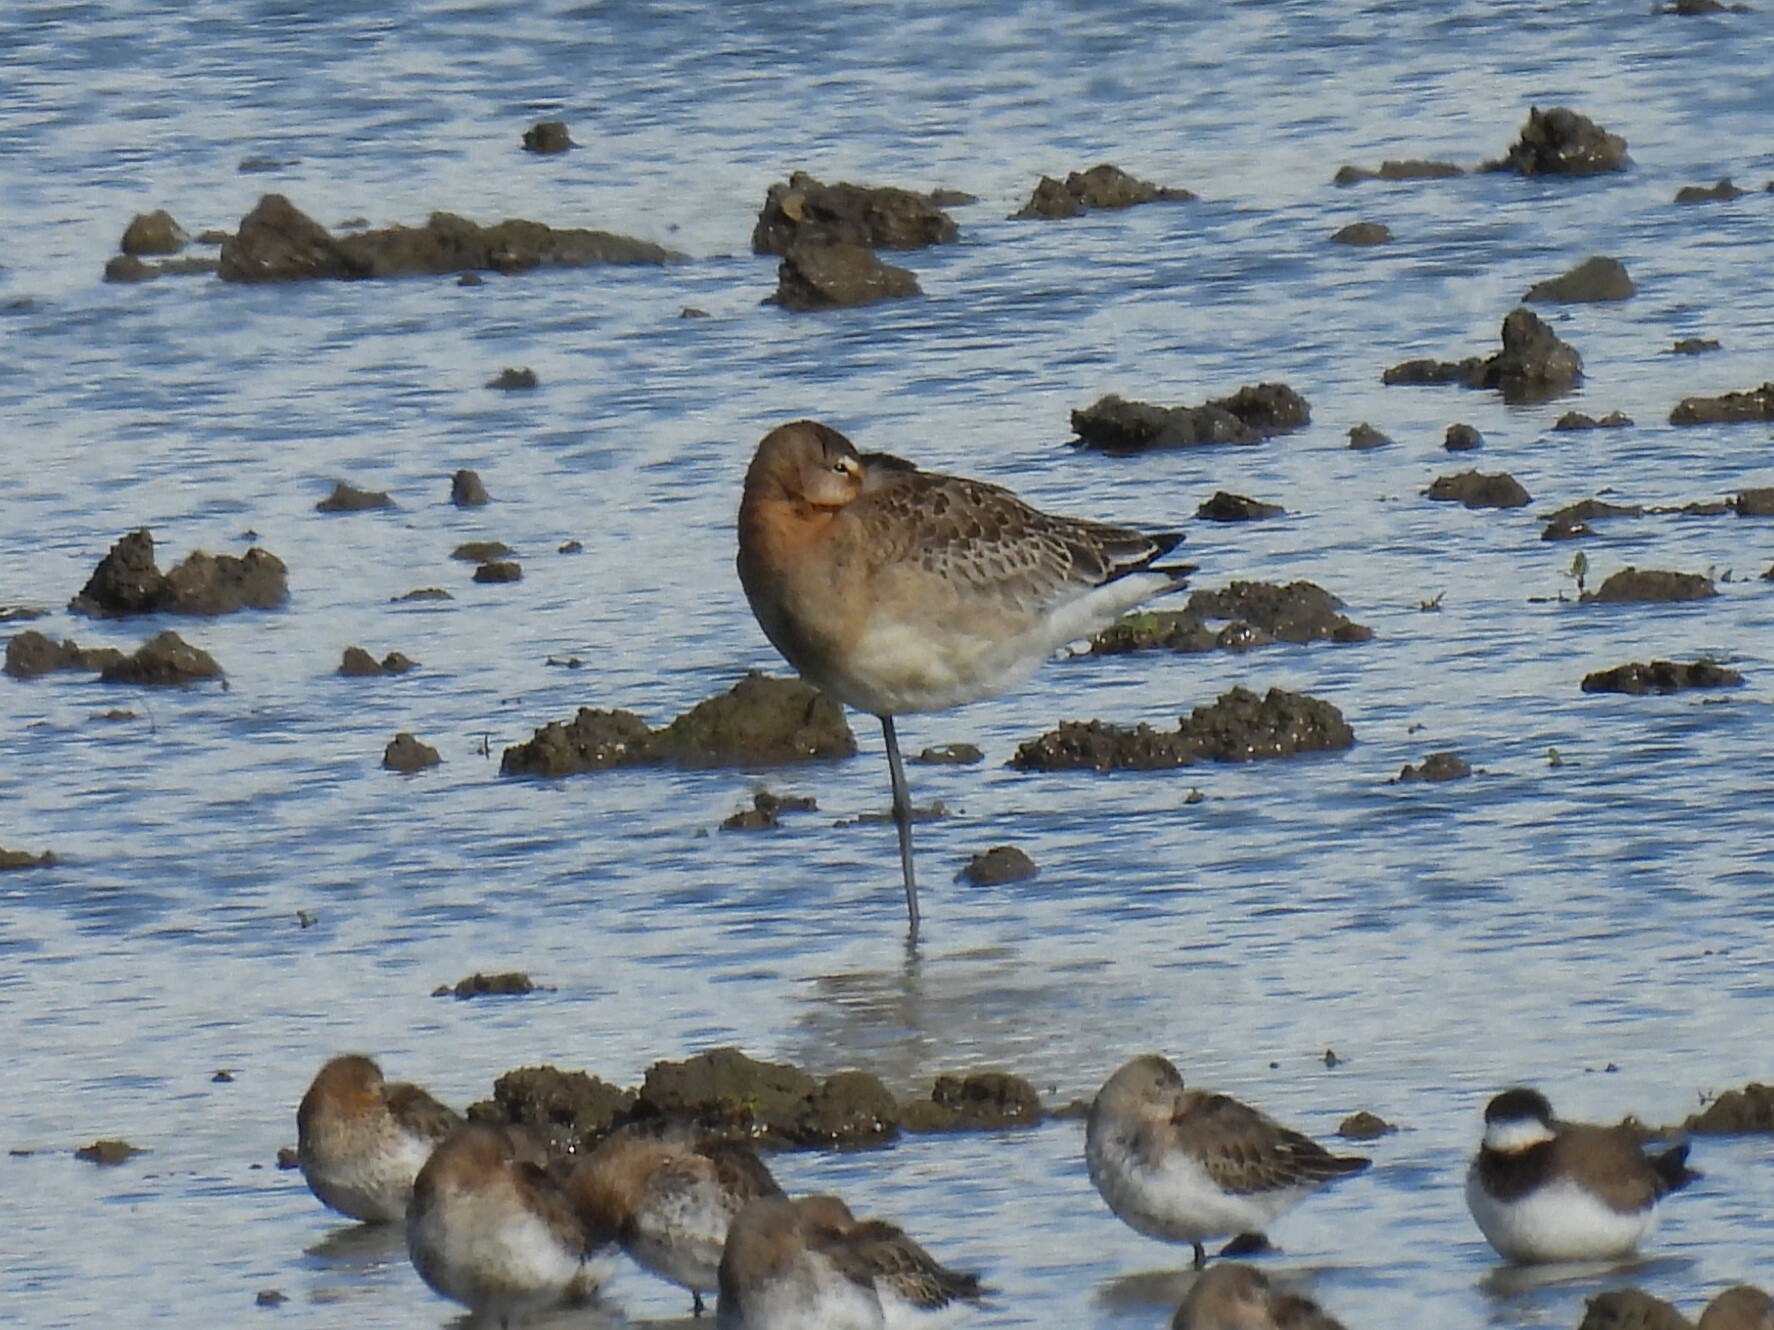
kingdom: Animalia
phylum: Chordata
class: Aves
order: Charadriiformes
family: Scolopacidae
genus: Limosa
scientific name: Limosa limosa
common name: Black-tailed godwit
